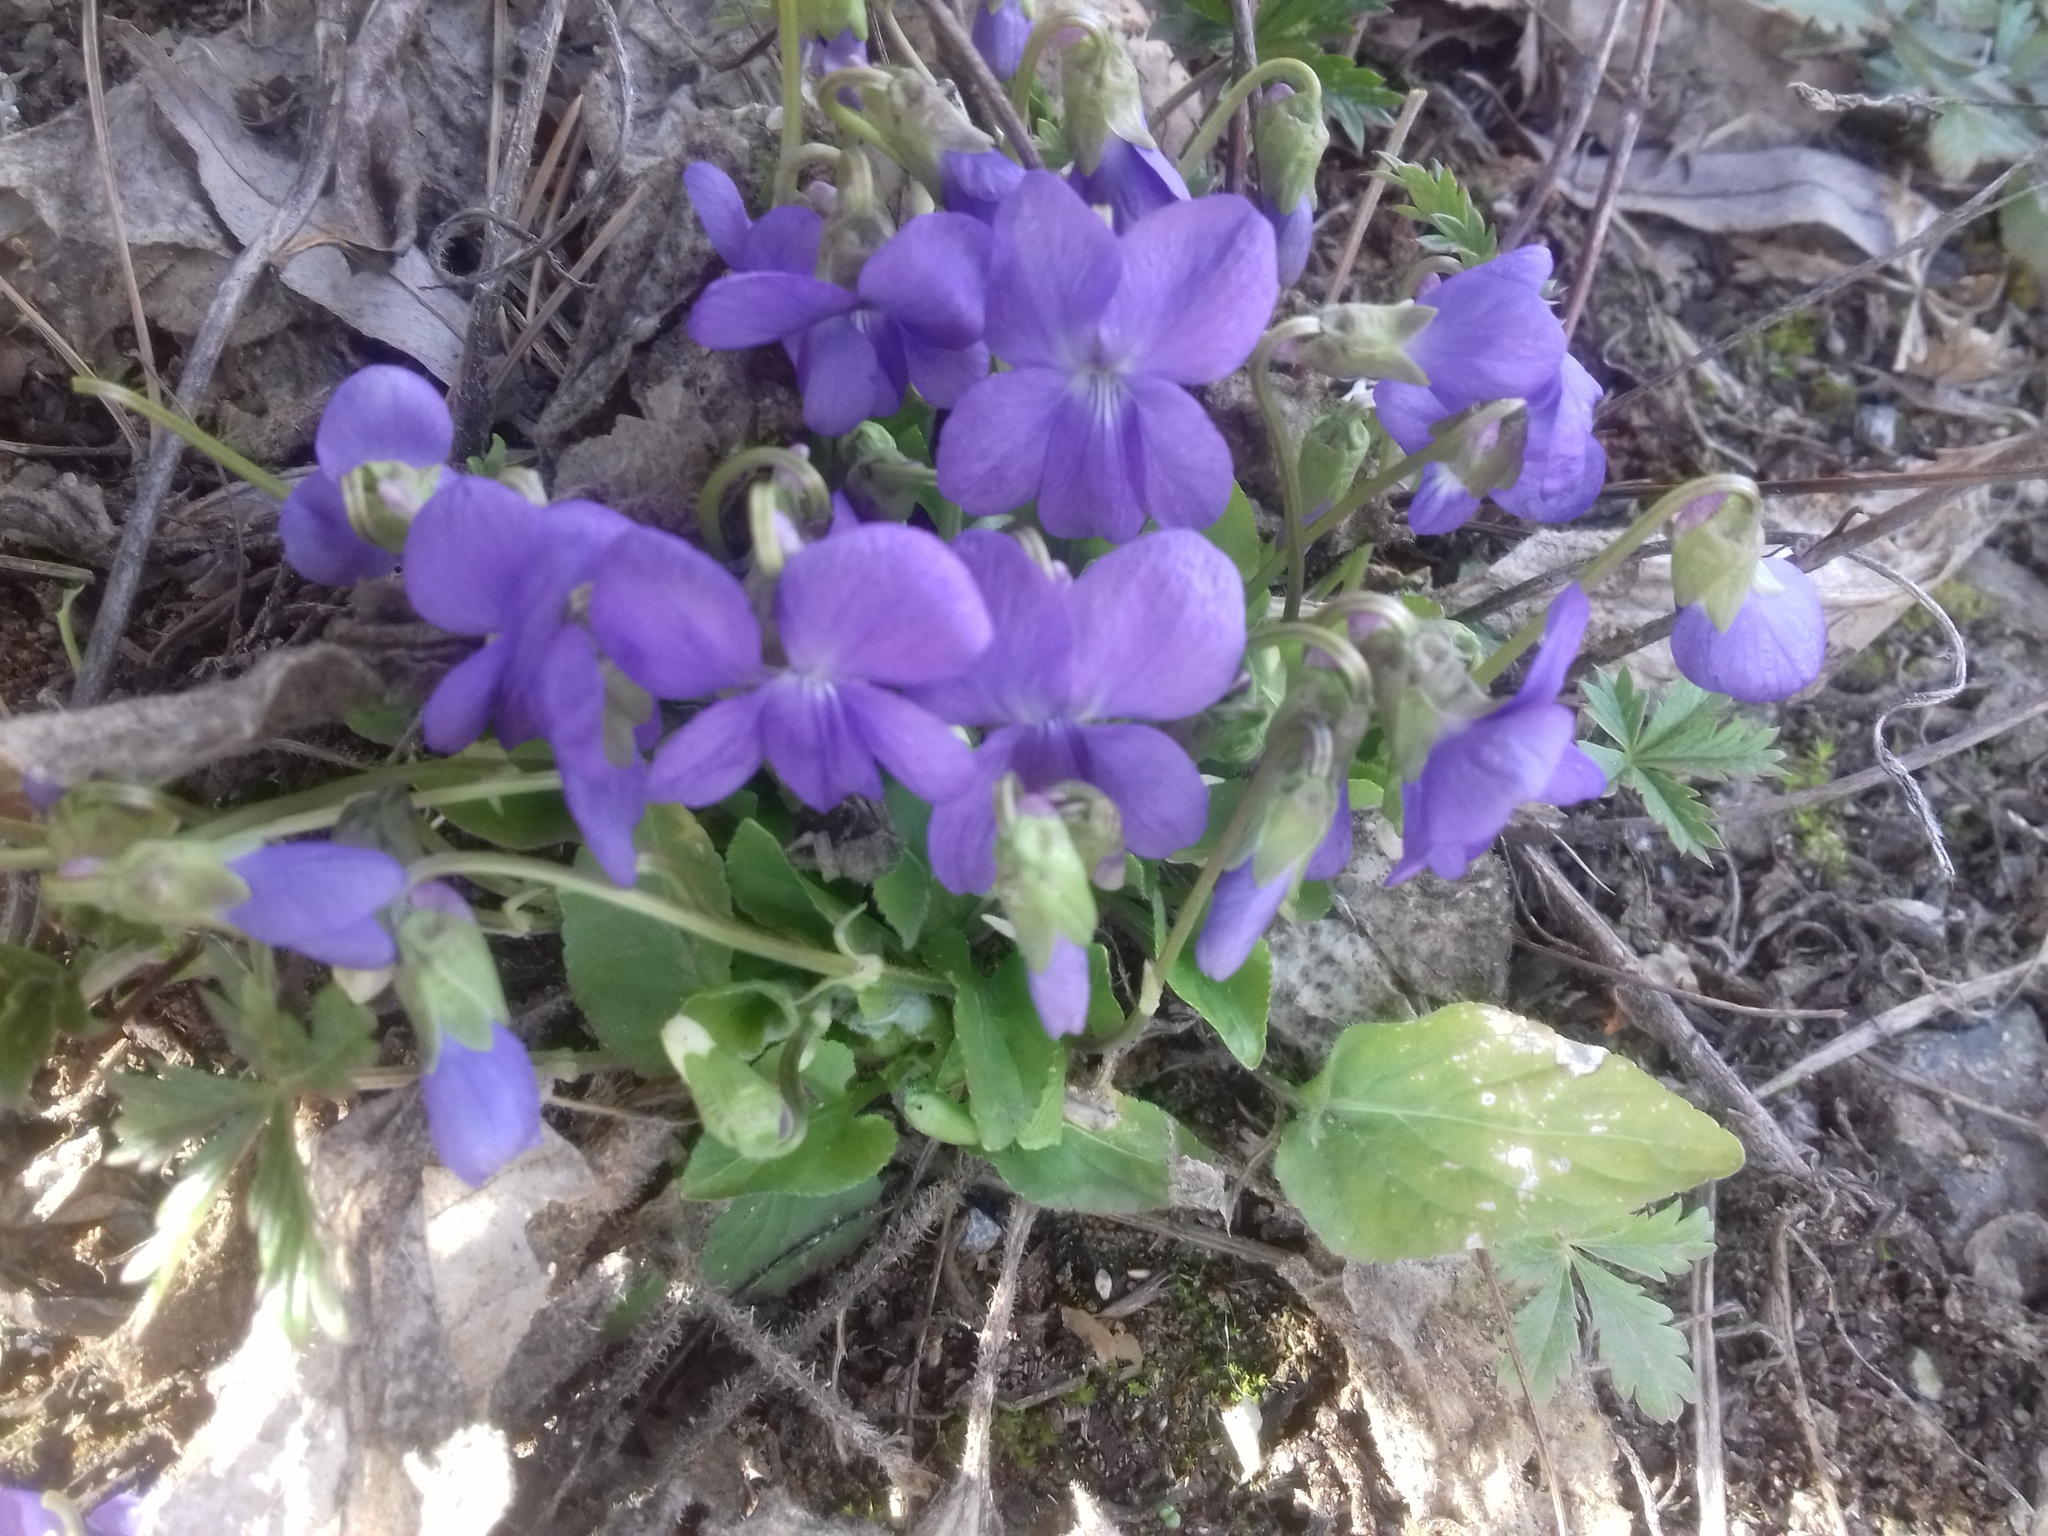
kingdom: Plantae
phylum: Tracheophyta
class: Magnoliopsida
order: Malpighiales
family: Violaceae
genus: Viola
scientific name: Viola hirta
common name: Hairy violet
